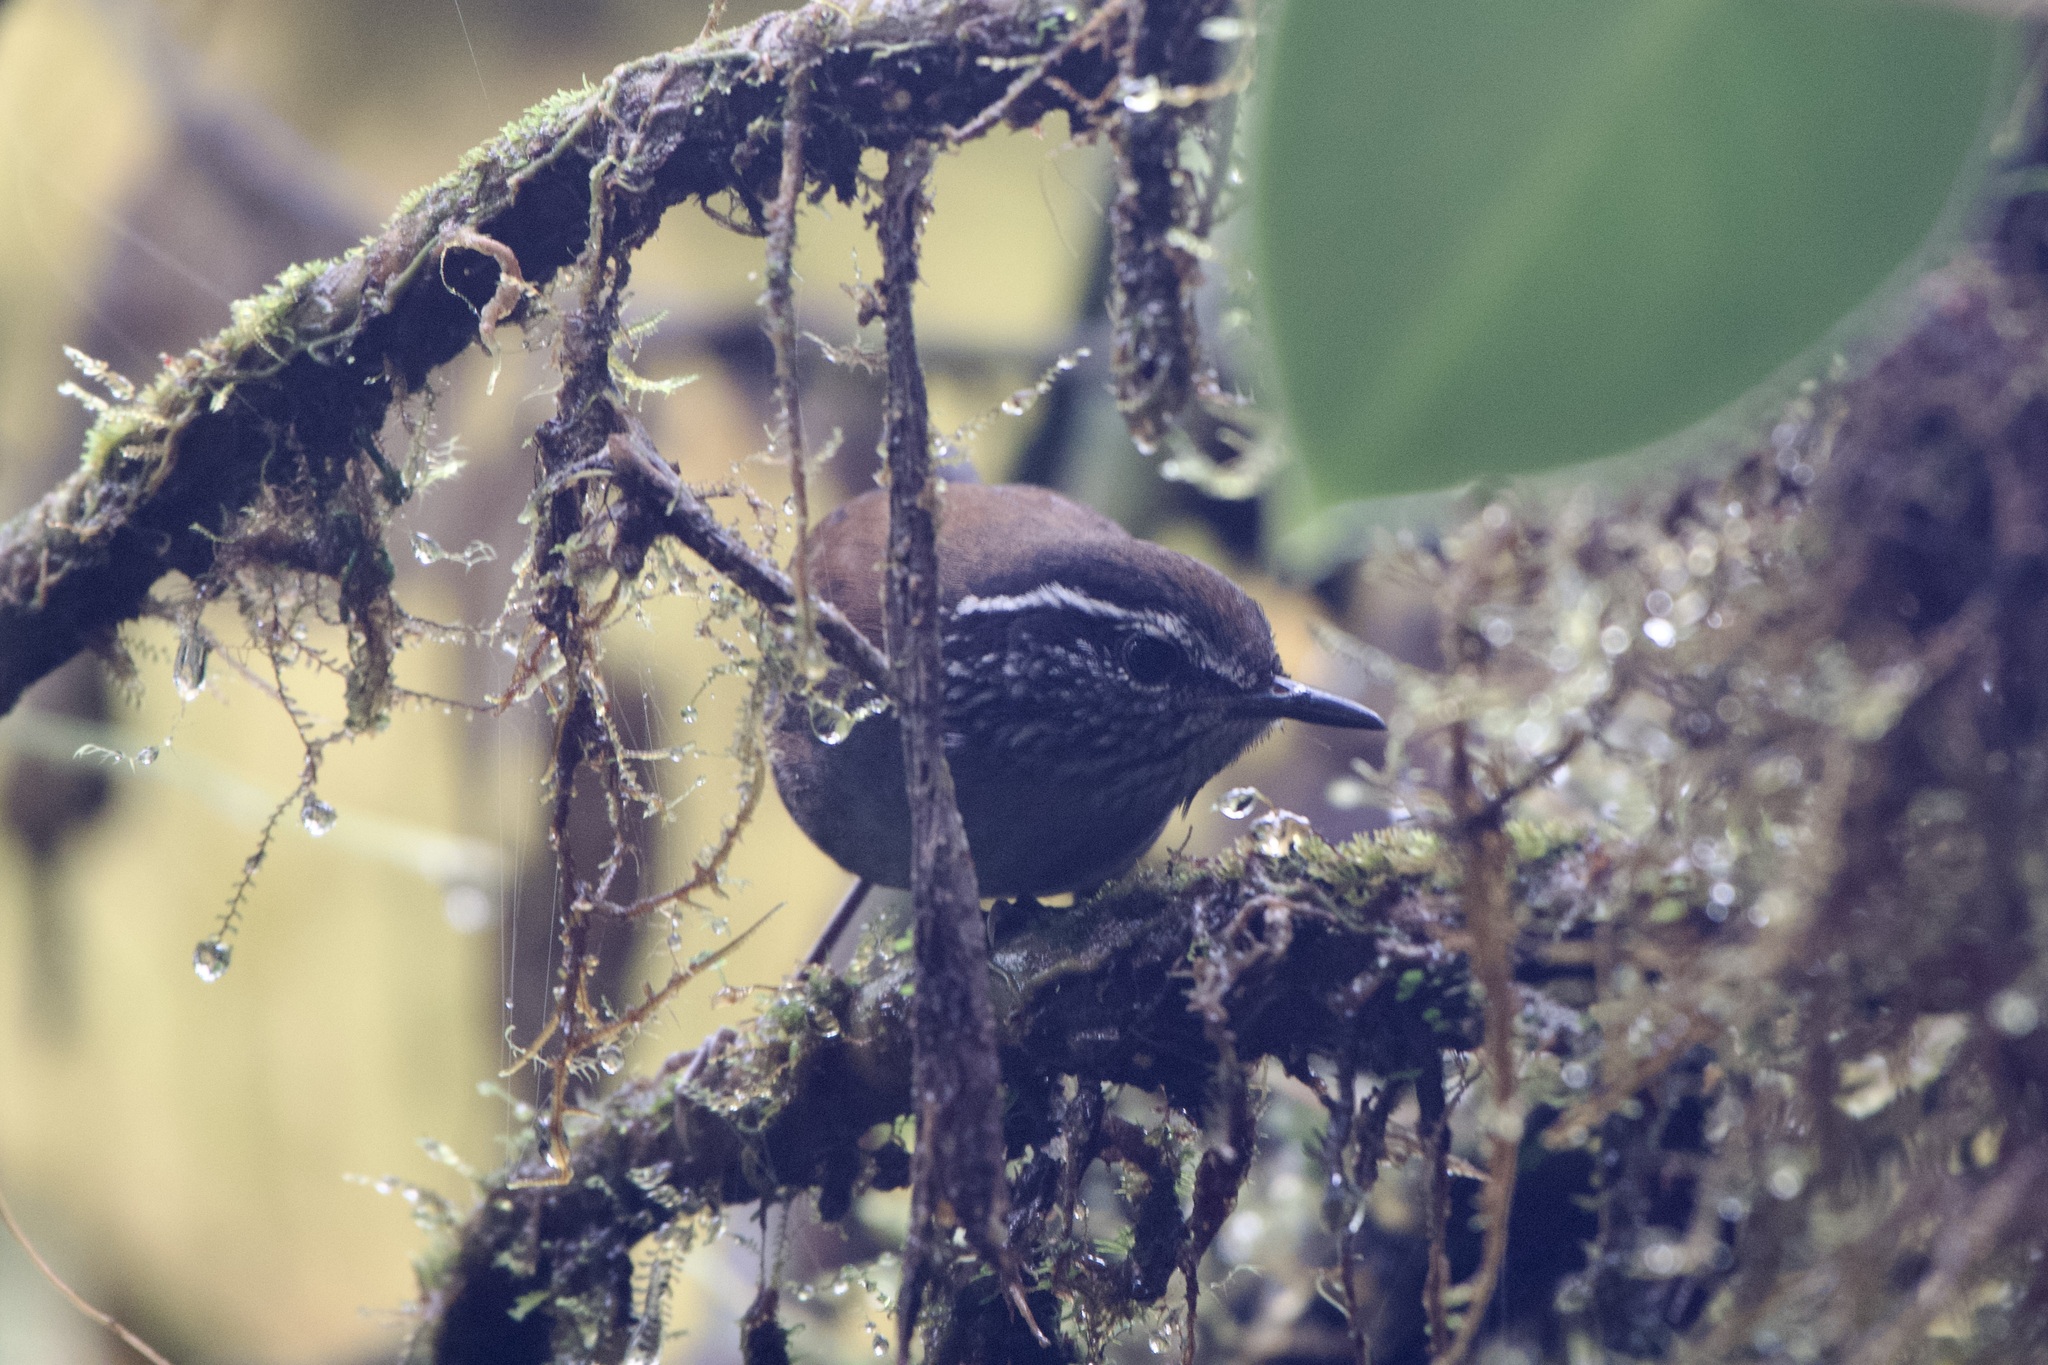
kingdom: Animalia
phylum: Chordata
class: Aves
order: Passeriformes
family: Troglodytidae
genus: Henicorhina
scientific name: Henicorhina leucophrys
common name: Gray-breasted wood-wren
